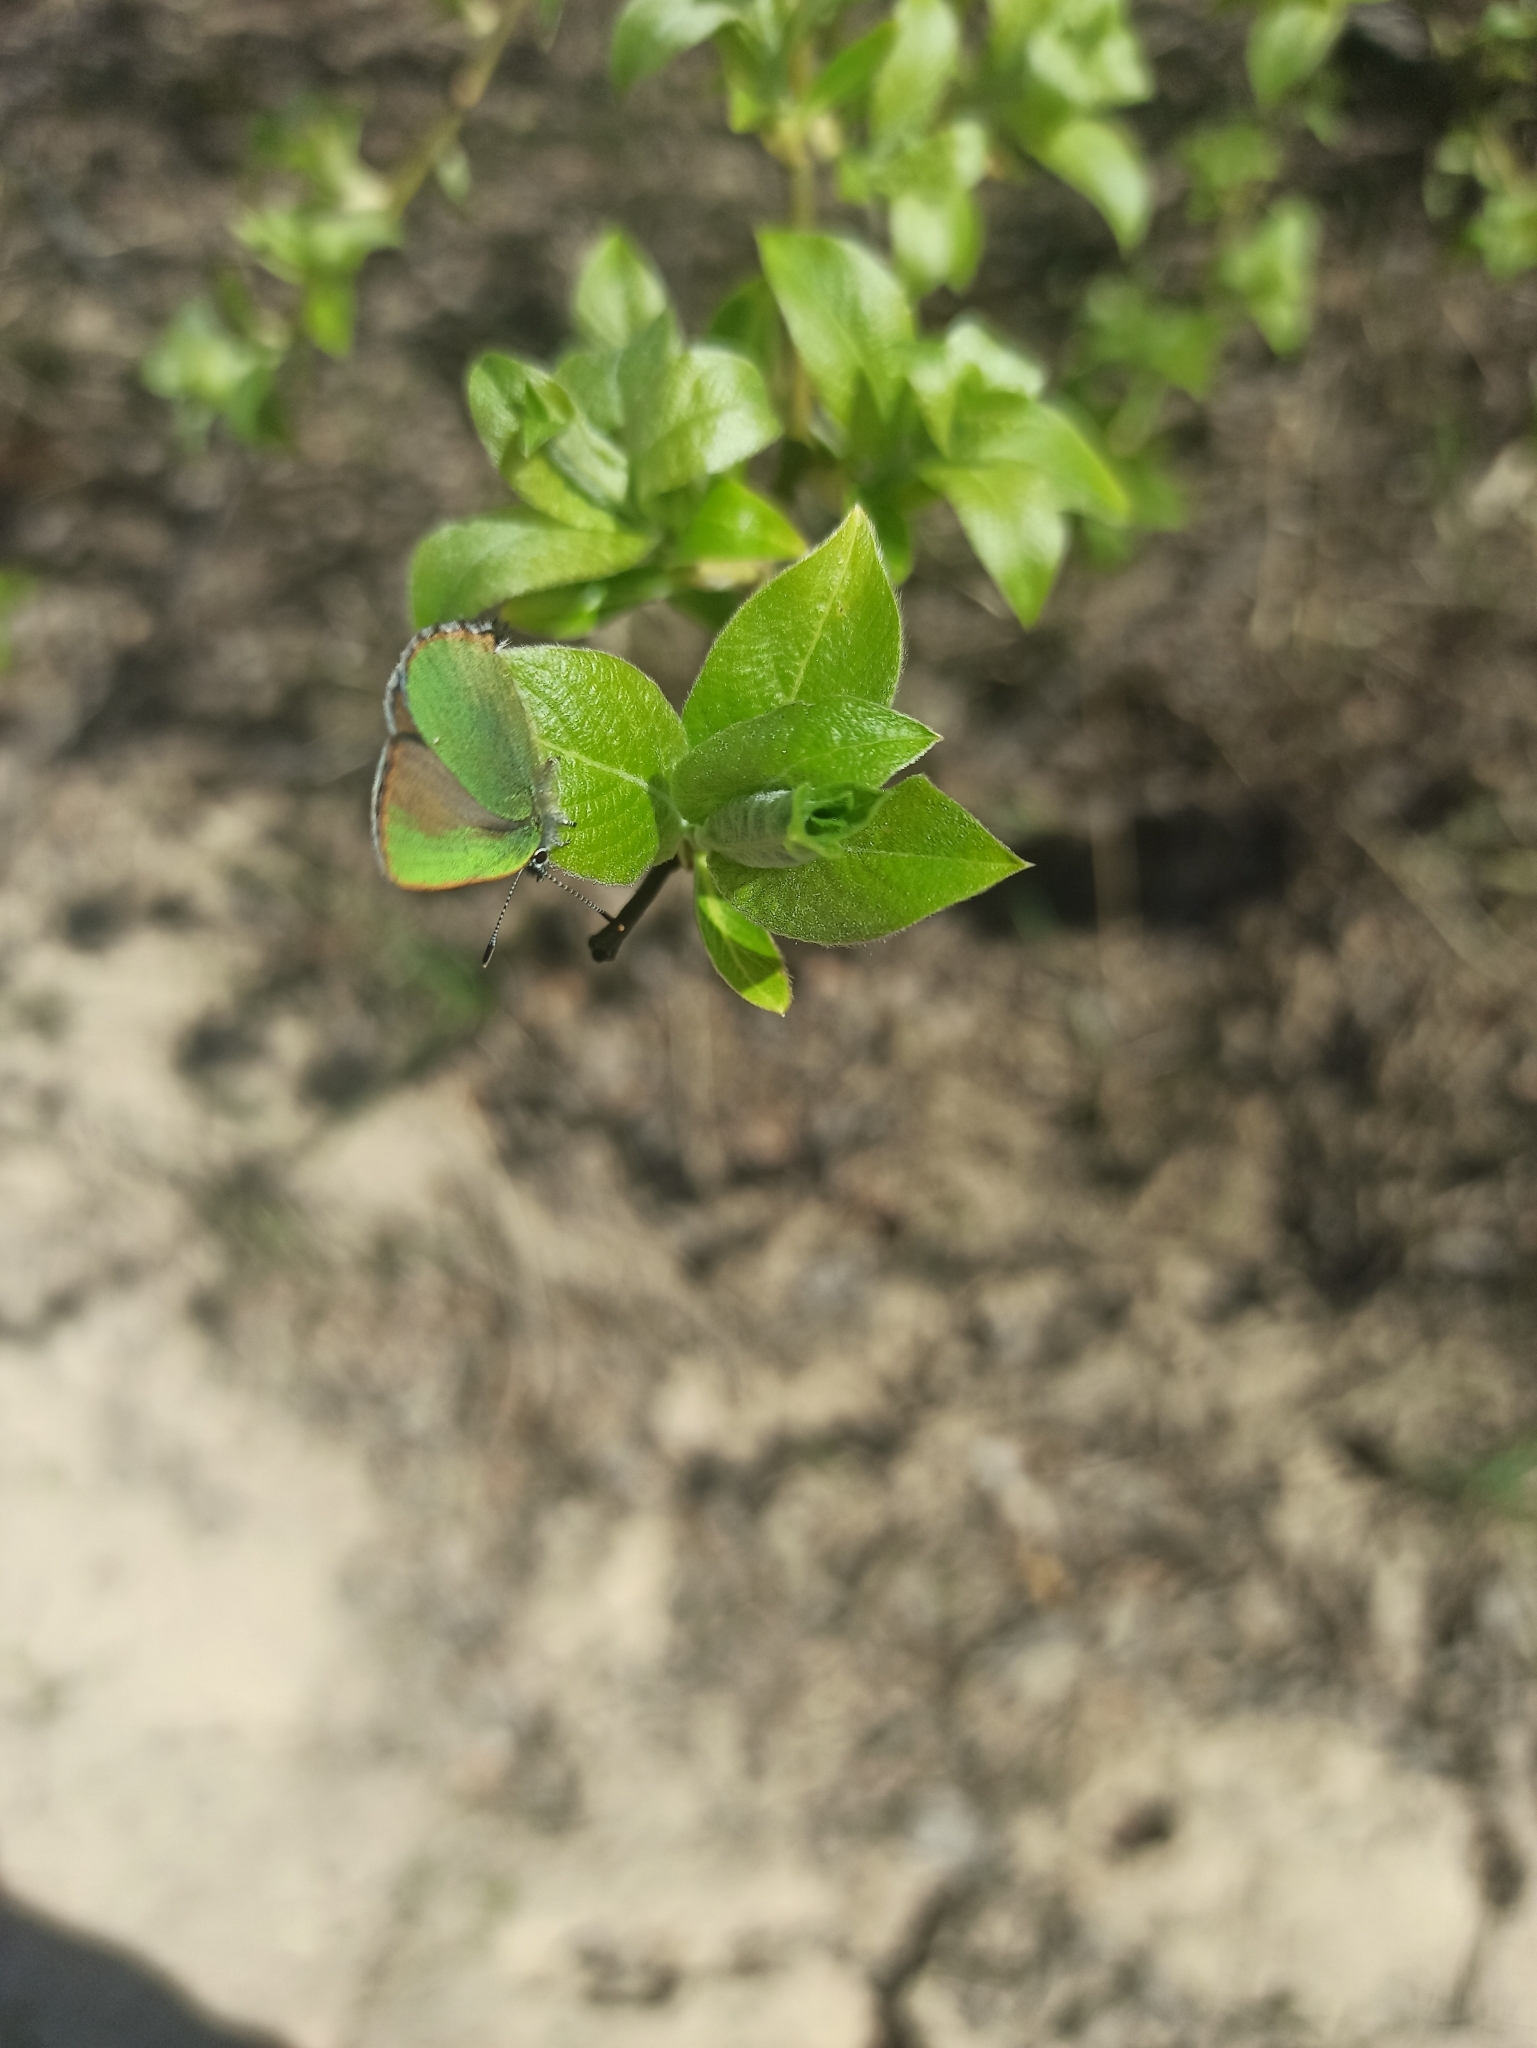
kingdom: Animalia
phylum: Arthropoda
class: Insecta
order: Lepidoptera
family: Lycaenidae
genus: Callophrys
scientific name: Callophrys rubi
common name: Green hairstreak
